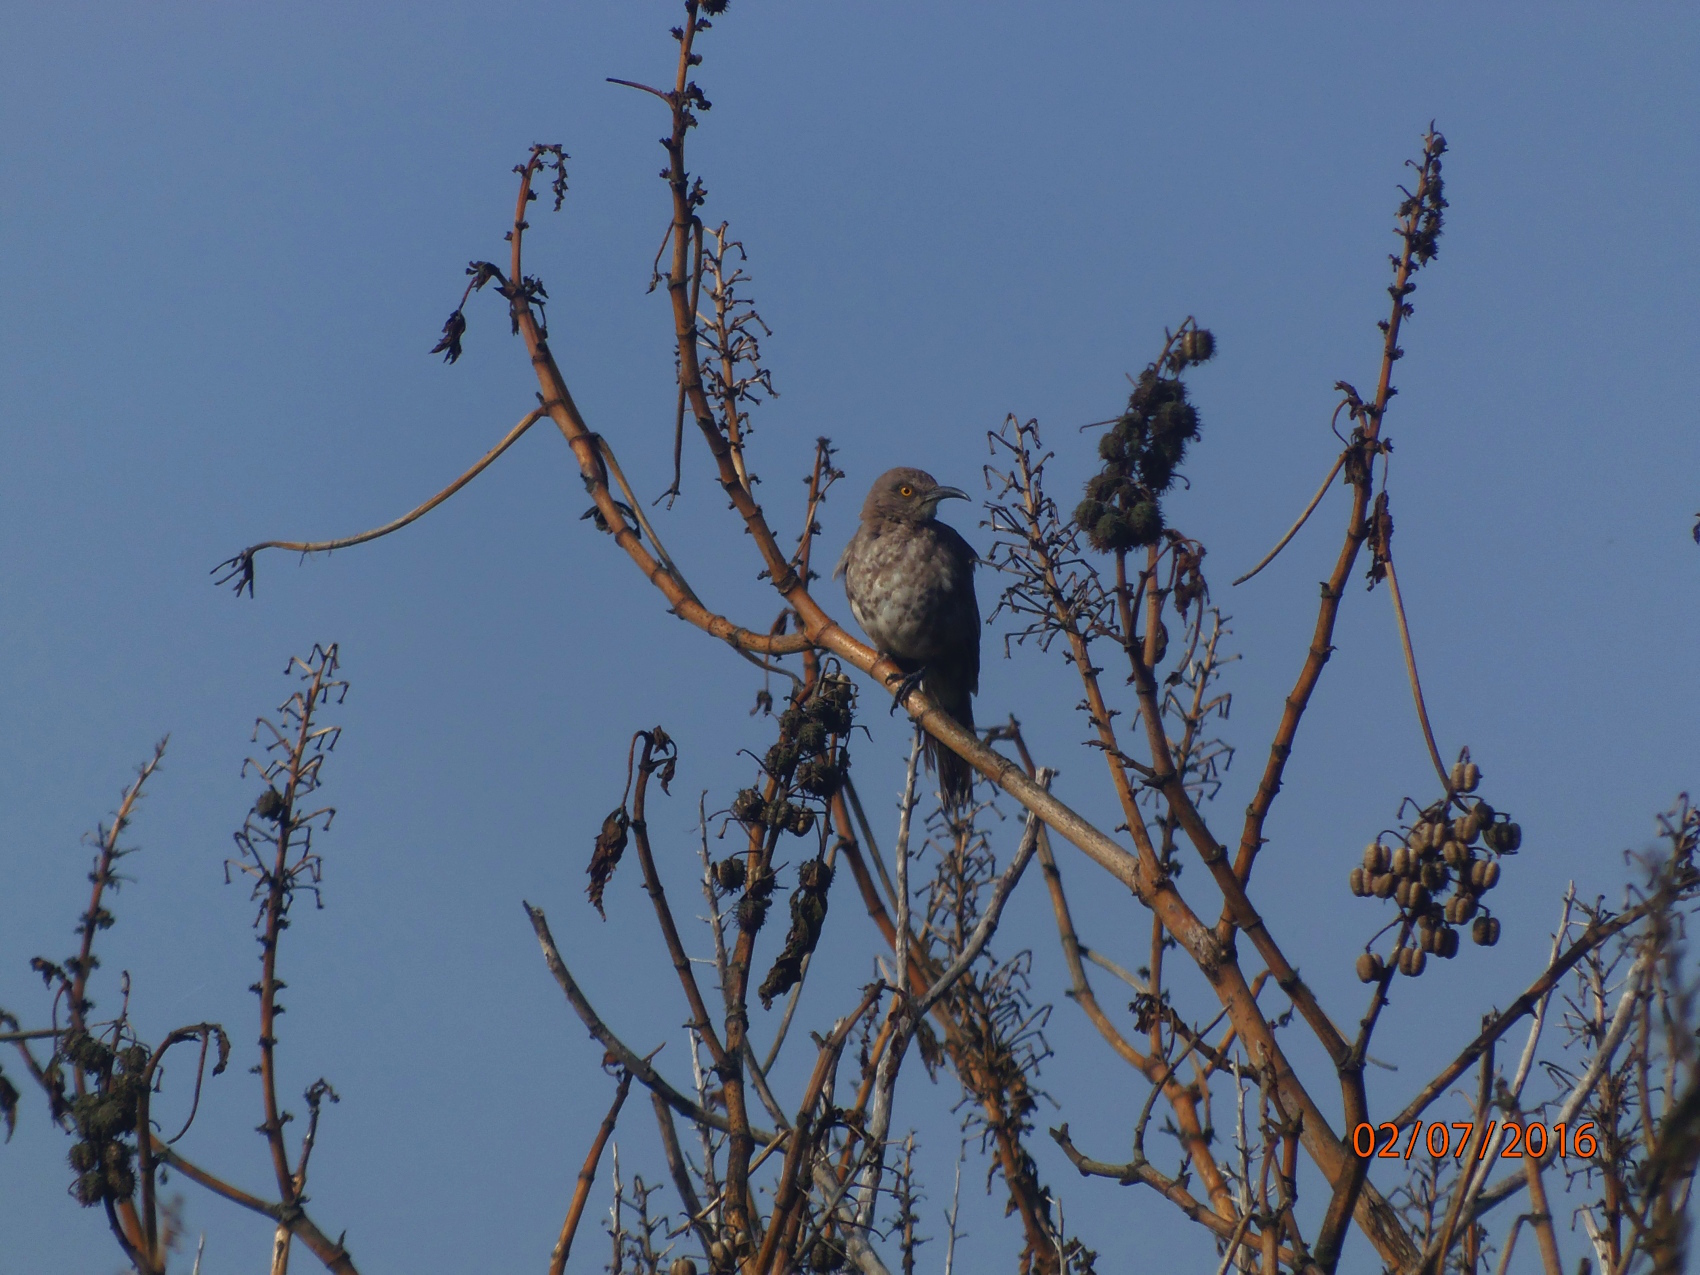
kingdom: Animalia
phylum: Chordata
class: Aves
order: Passeriformes
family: Mimidae
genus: Toxostoma
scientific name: Toxostoma curvirostre
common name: Curve-billed thrasher
